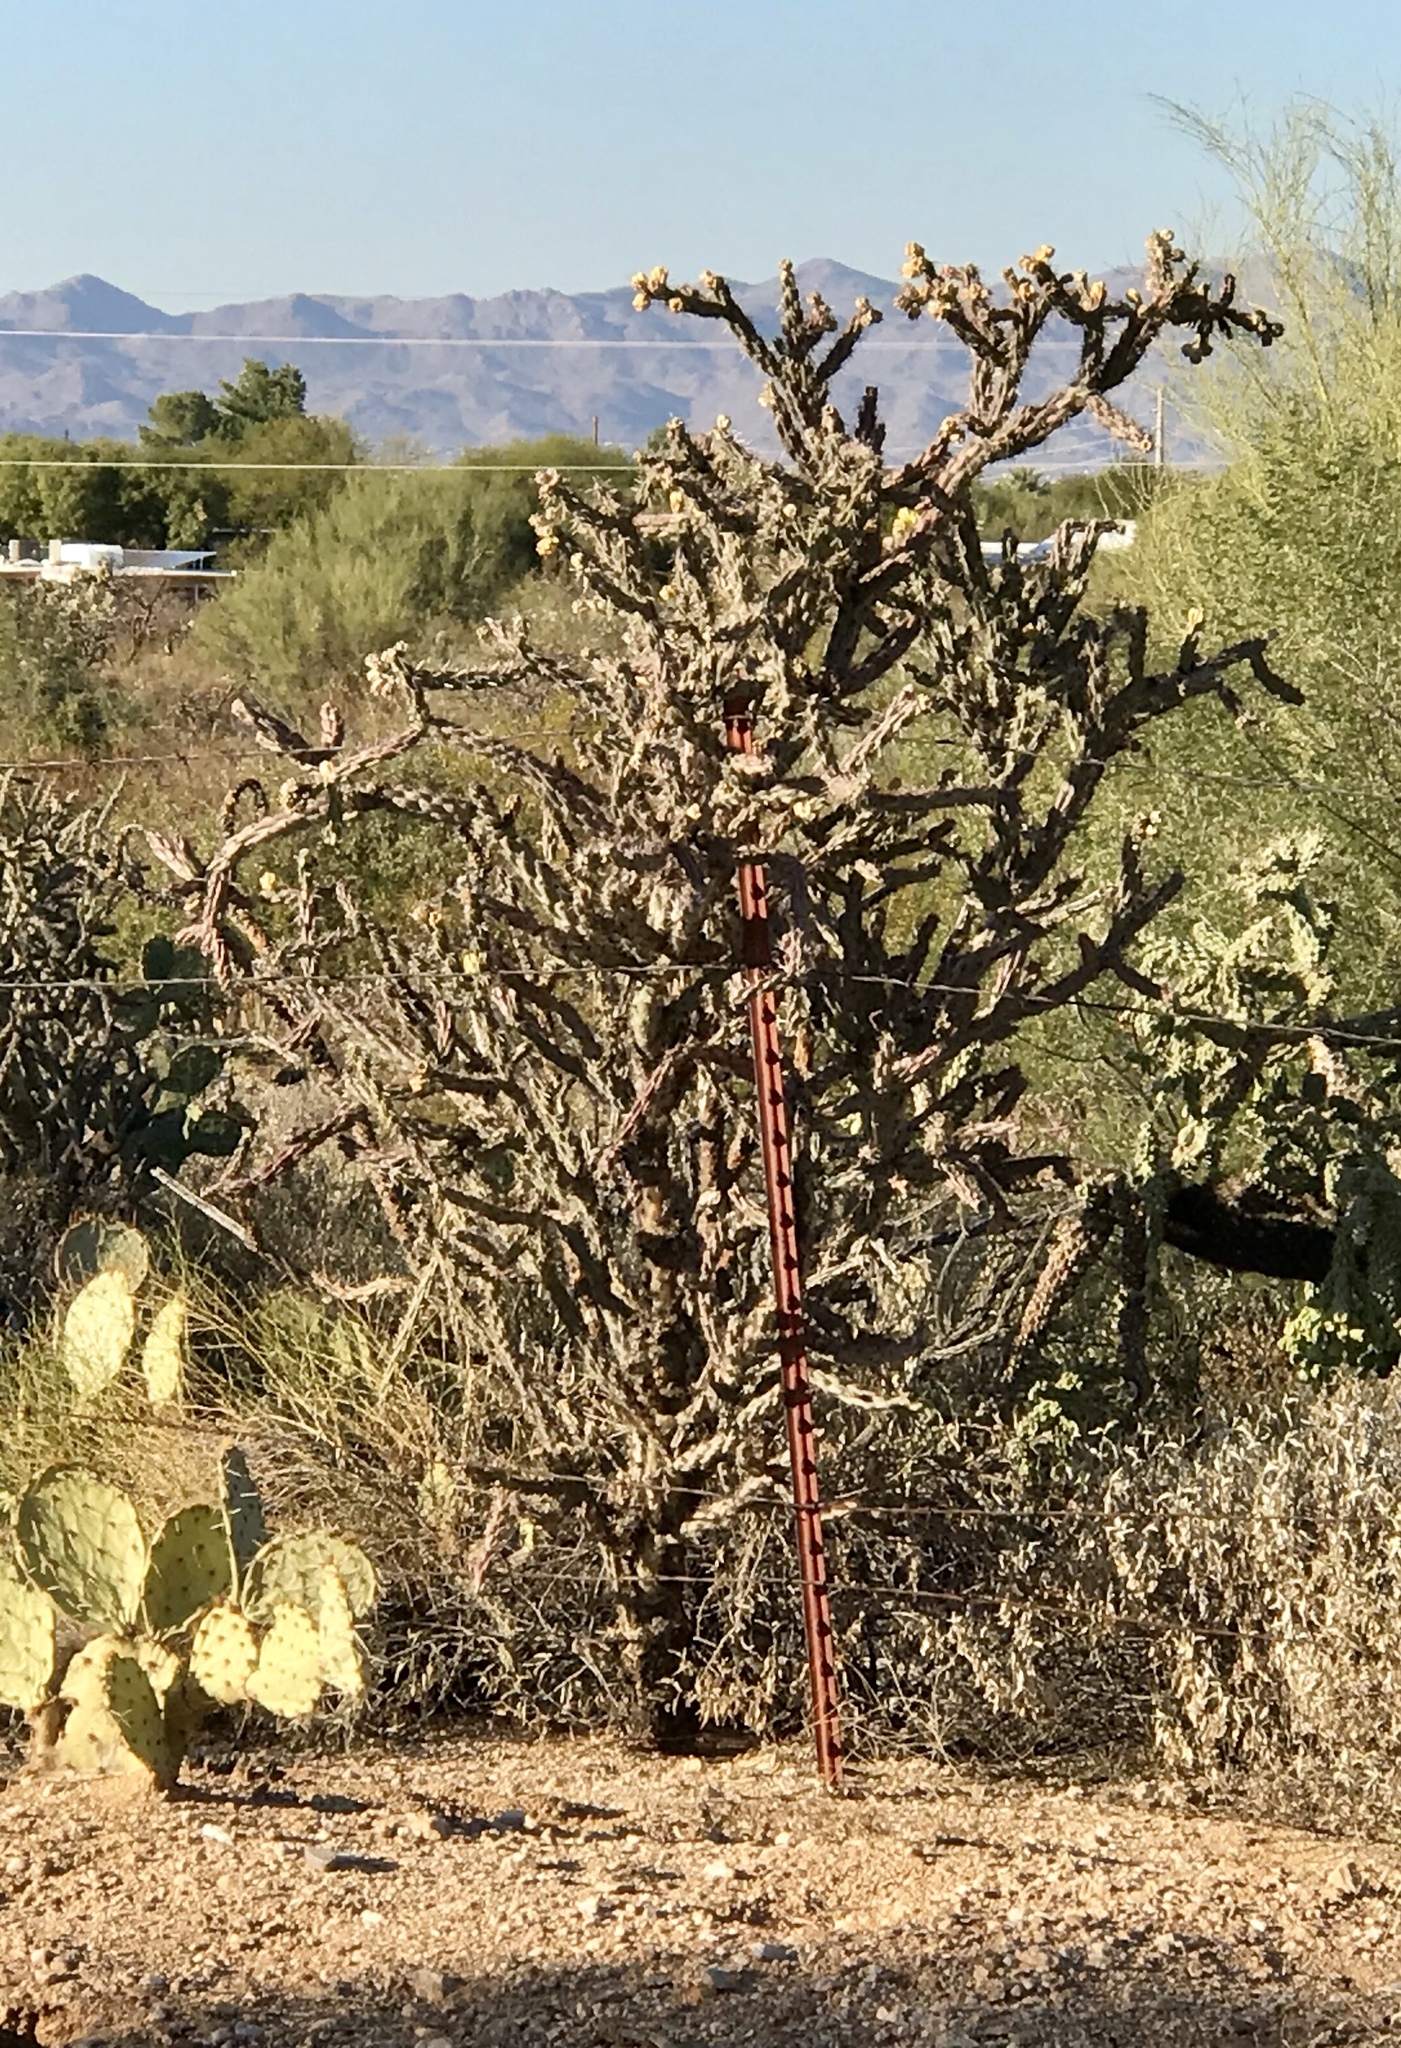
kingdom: Plantae
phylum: Tracheophyta
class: Magnoliopsida
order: Caryophyllales
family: Cactaceae
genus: Cylindropuntia
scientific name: Cylindropuntia thurberi
